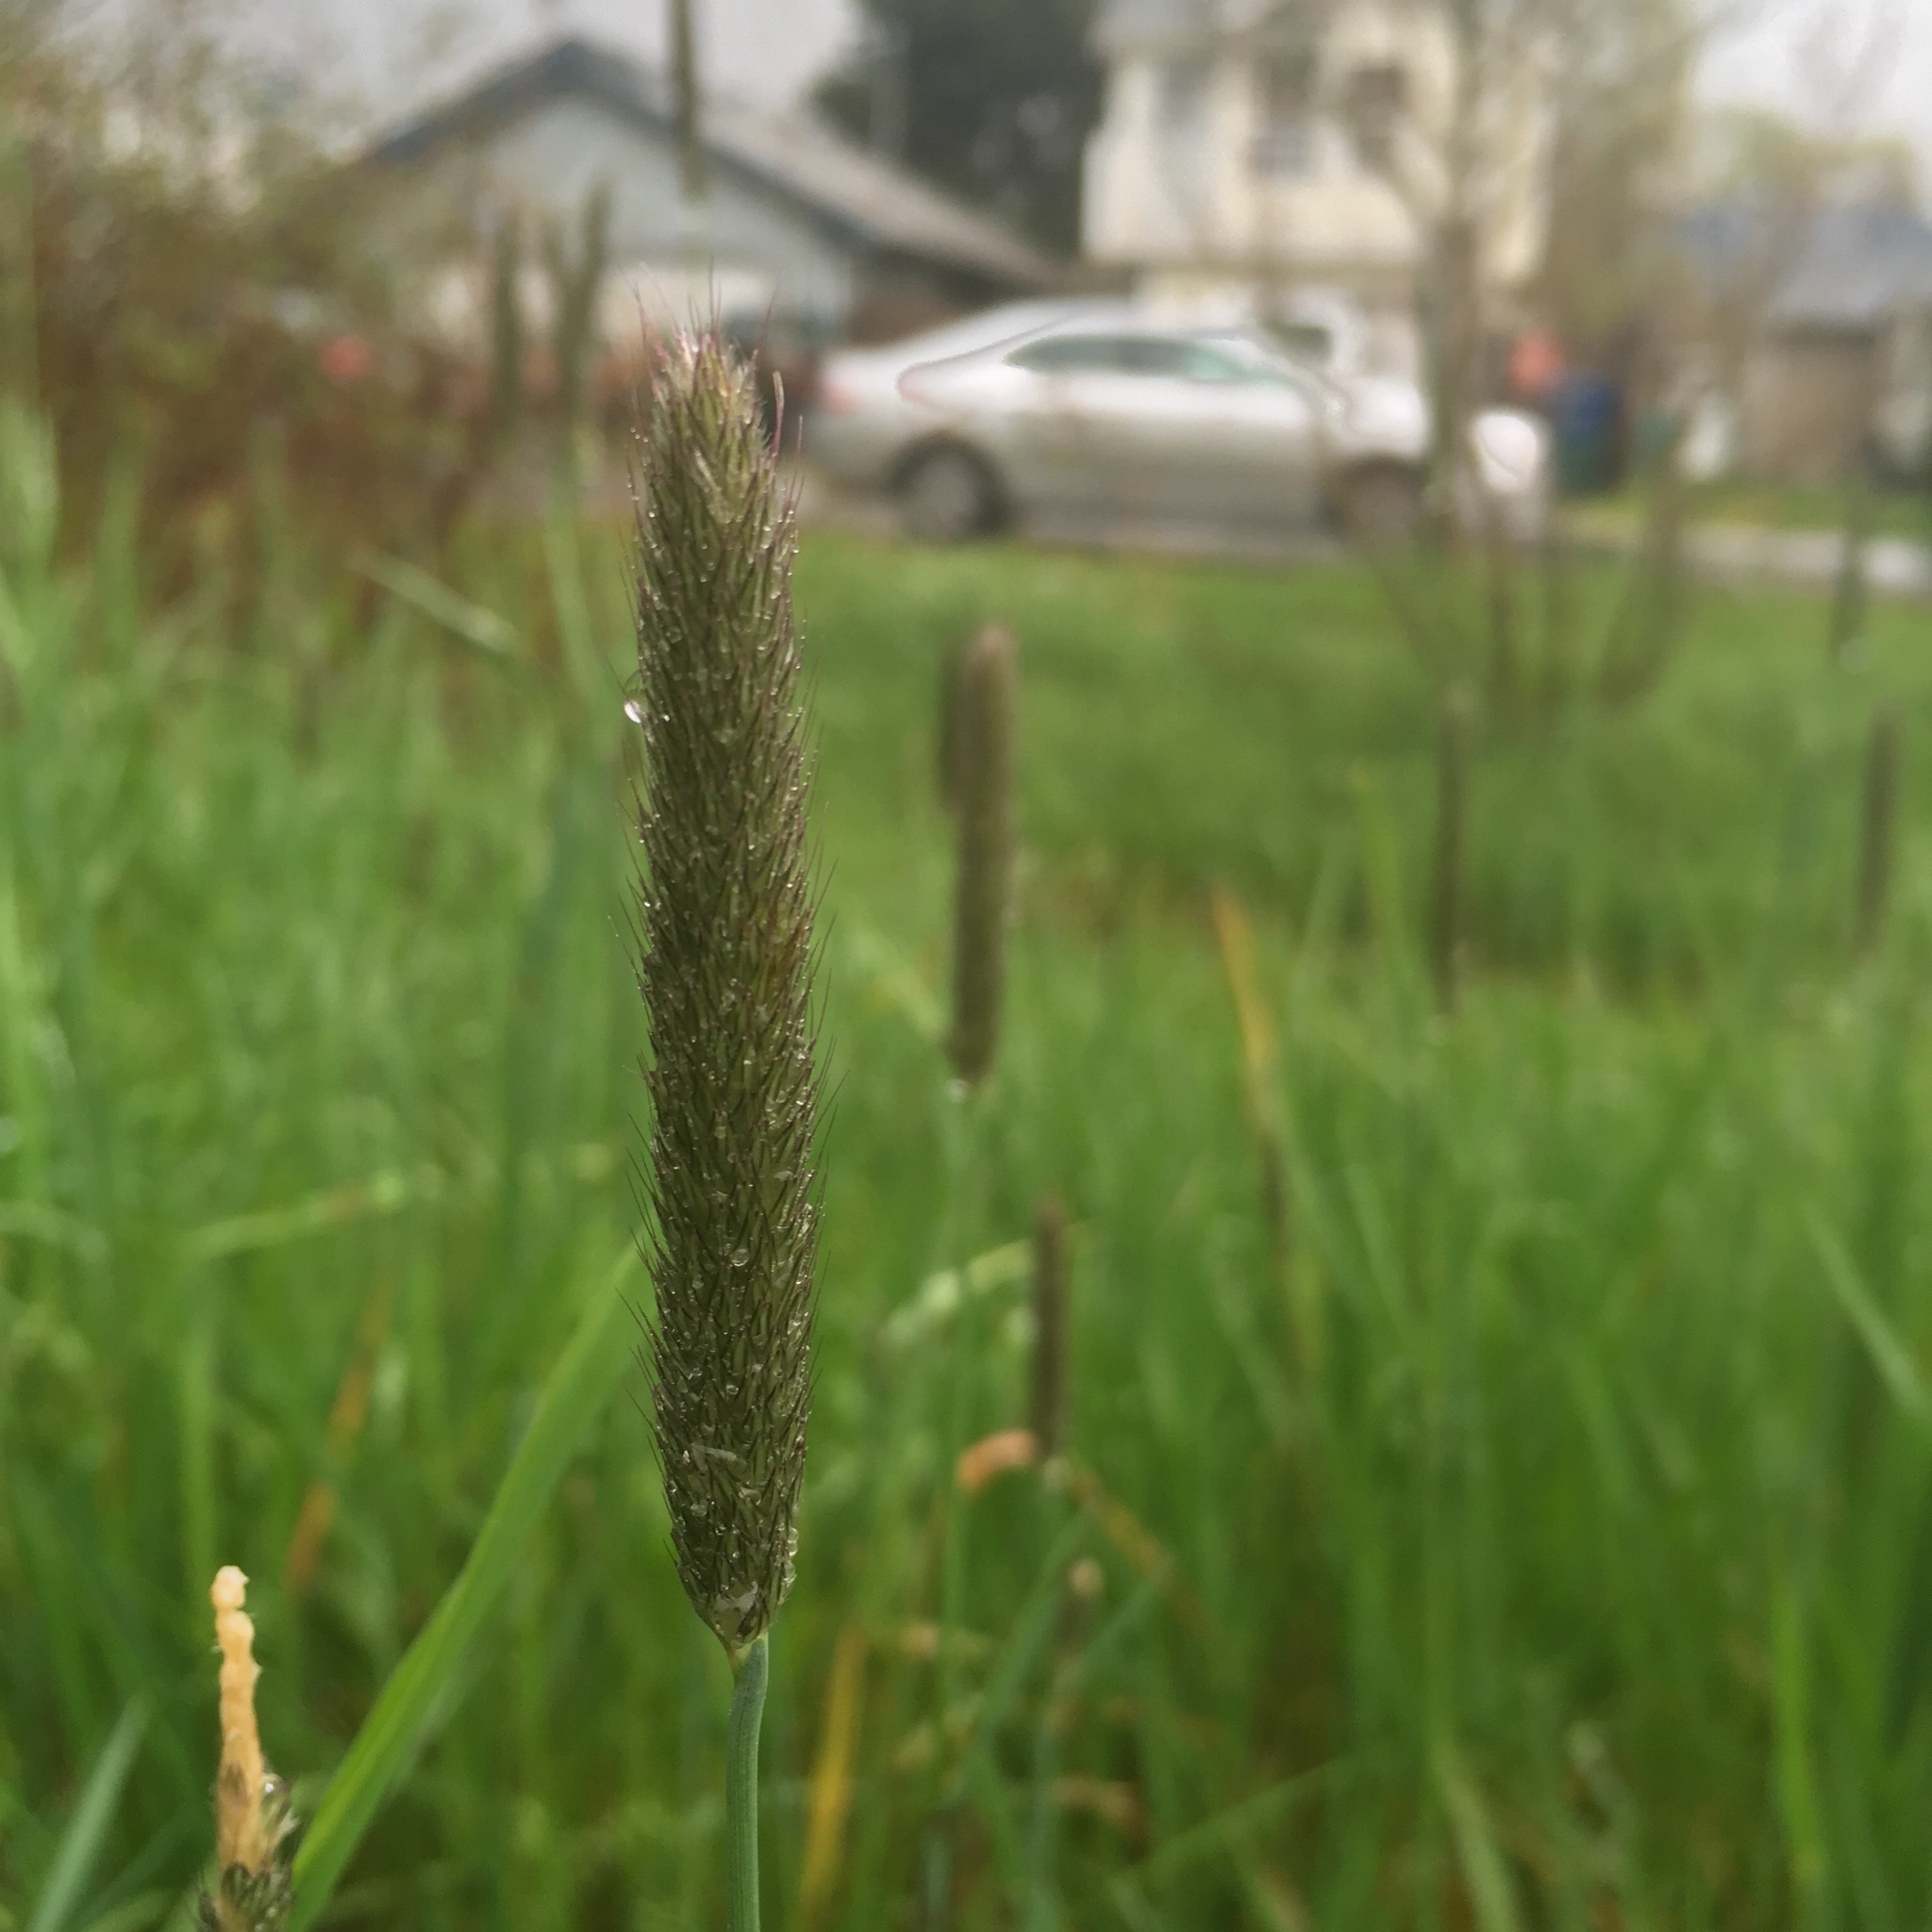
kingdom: Plantae
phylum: Tracheophyta
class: Liliopsida
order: Poales
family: Poaceae
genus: Alopecurus
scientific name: Alopecurus pratensis
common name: Meadow foxtail
